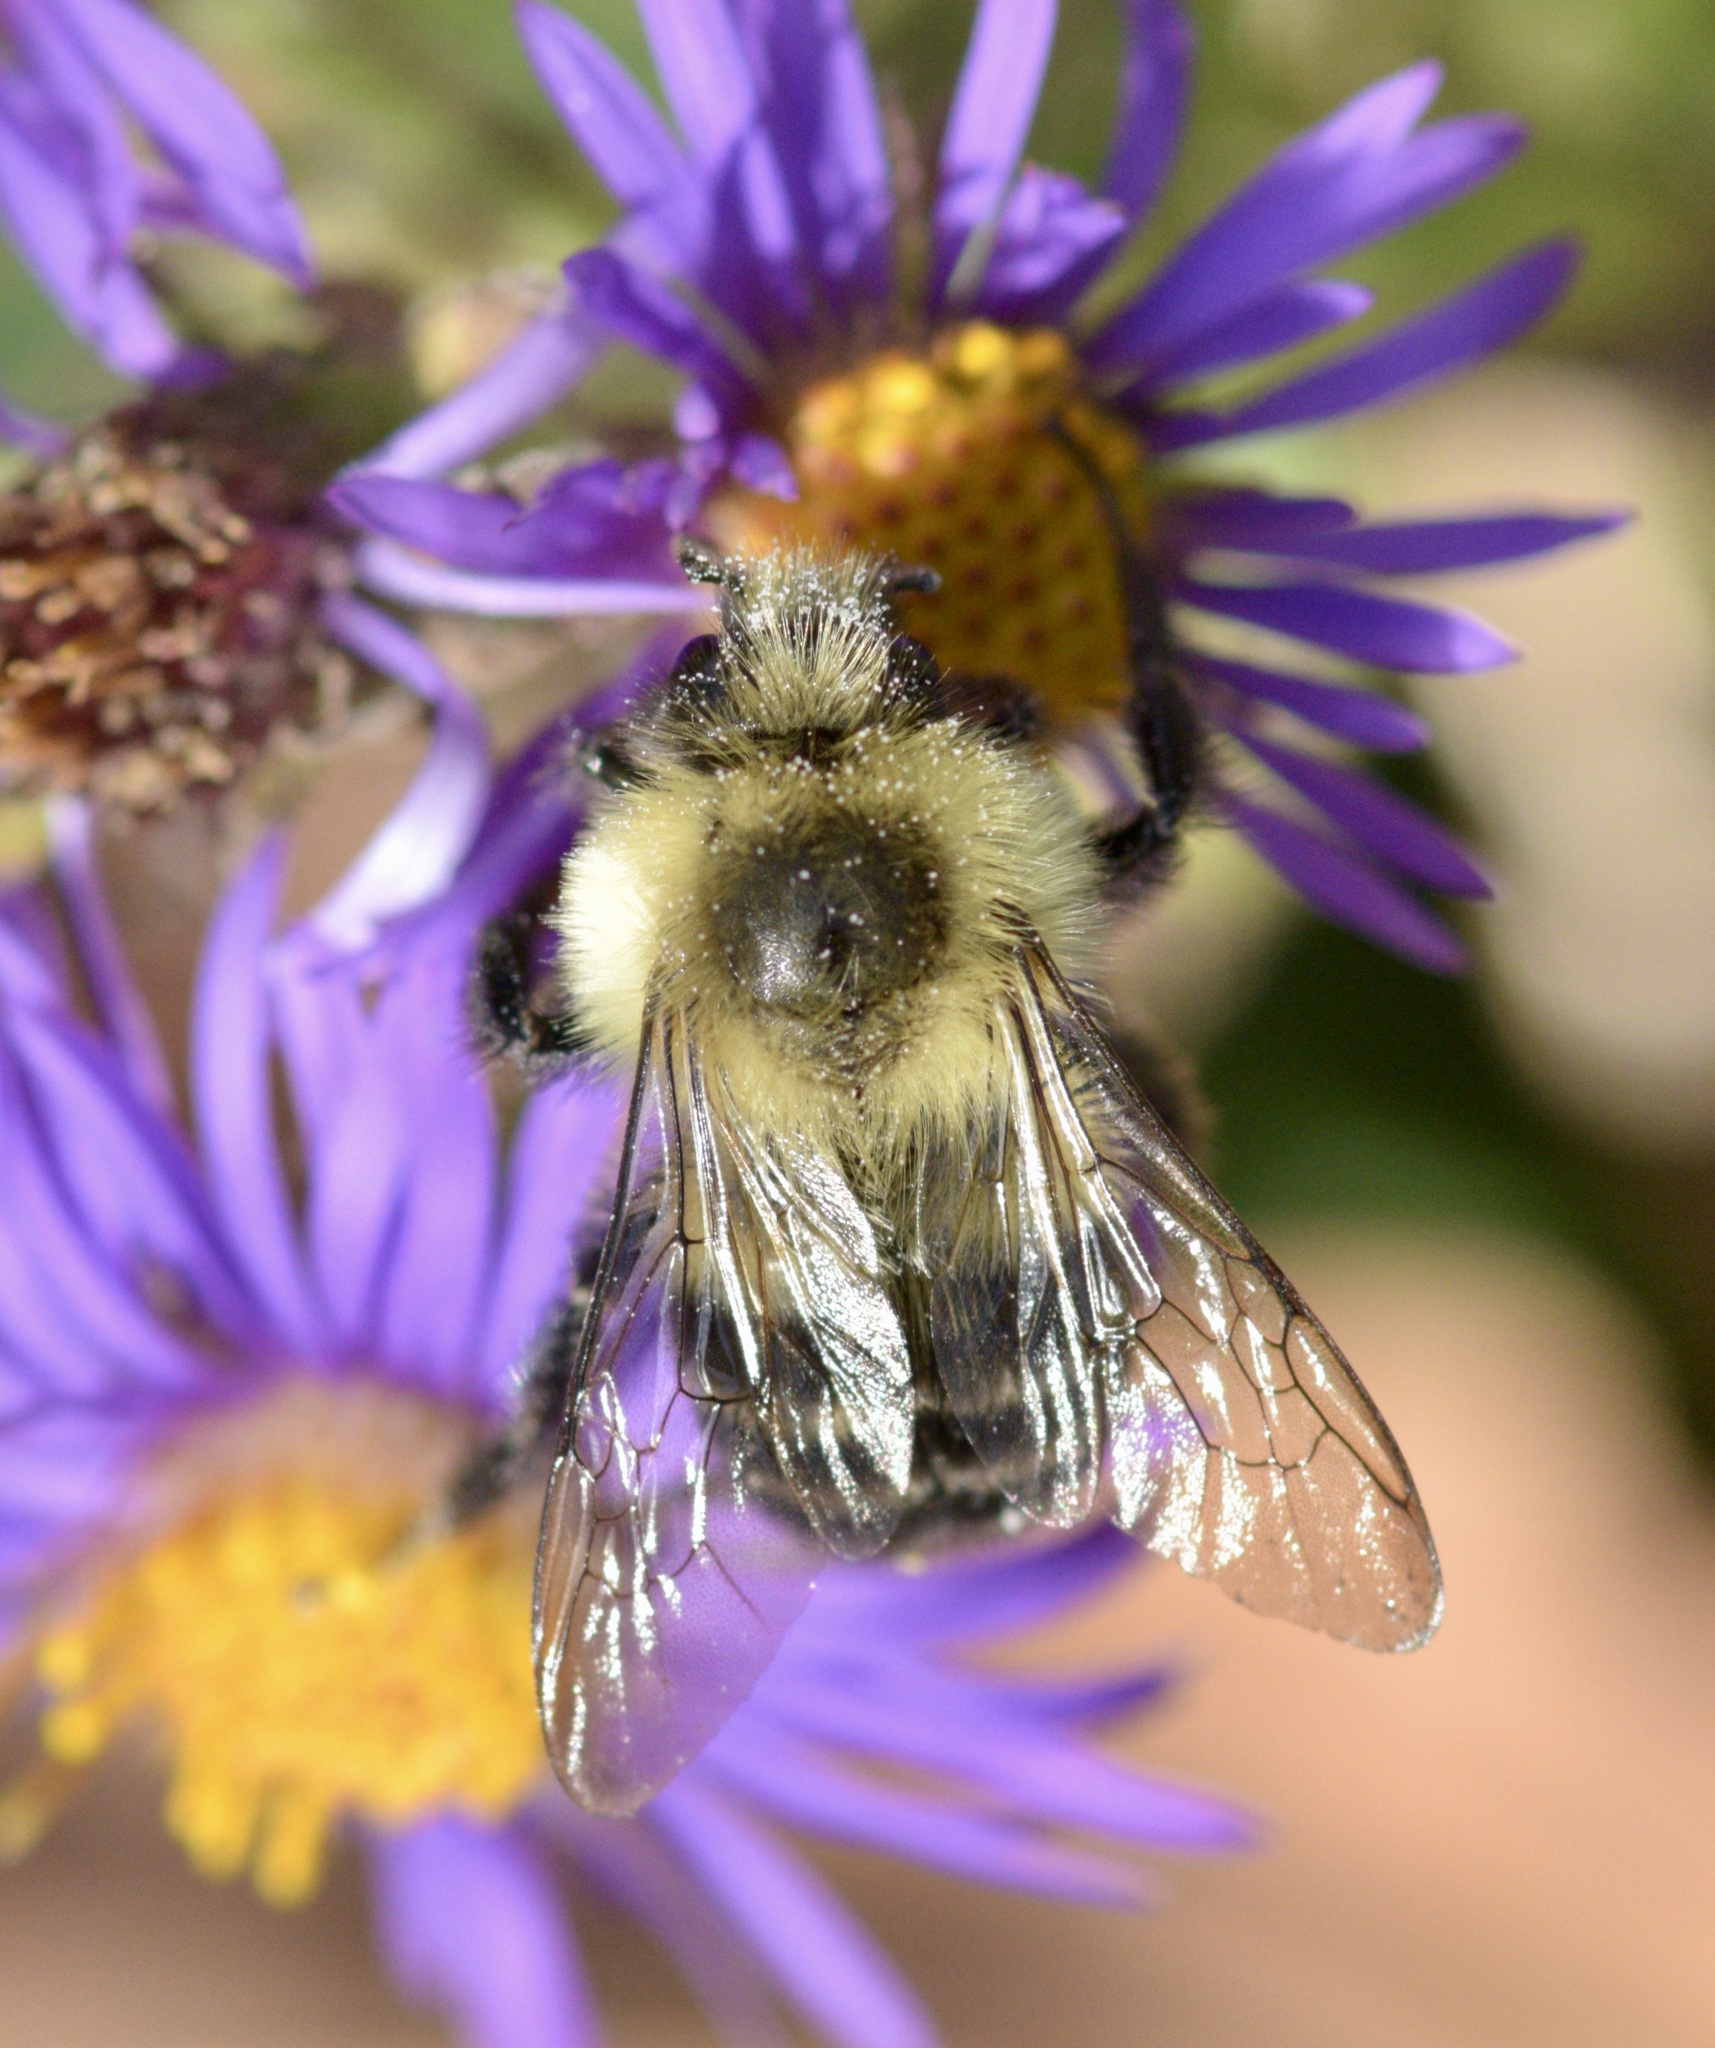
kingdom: Animalia
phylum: Arthropoda
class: Insecta
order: Hymenoptera
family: Apidae
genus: Bombus
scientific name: Bombus impatiens
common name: Common eastern bumble bee
